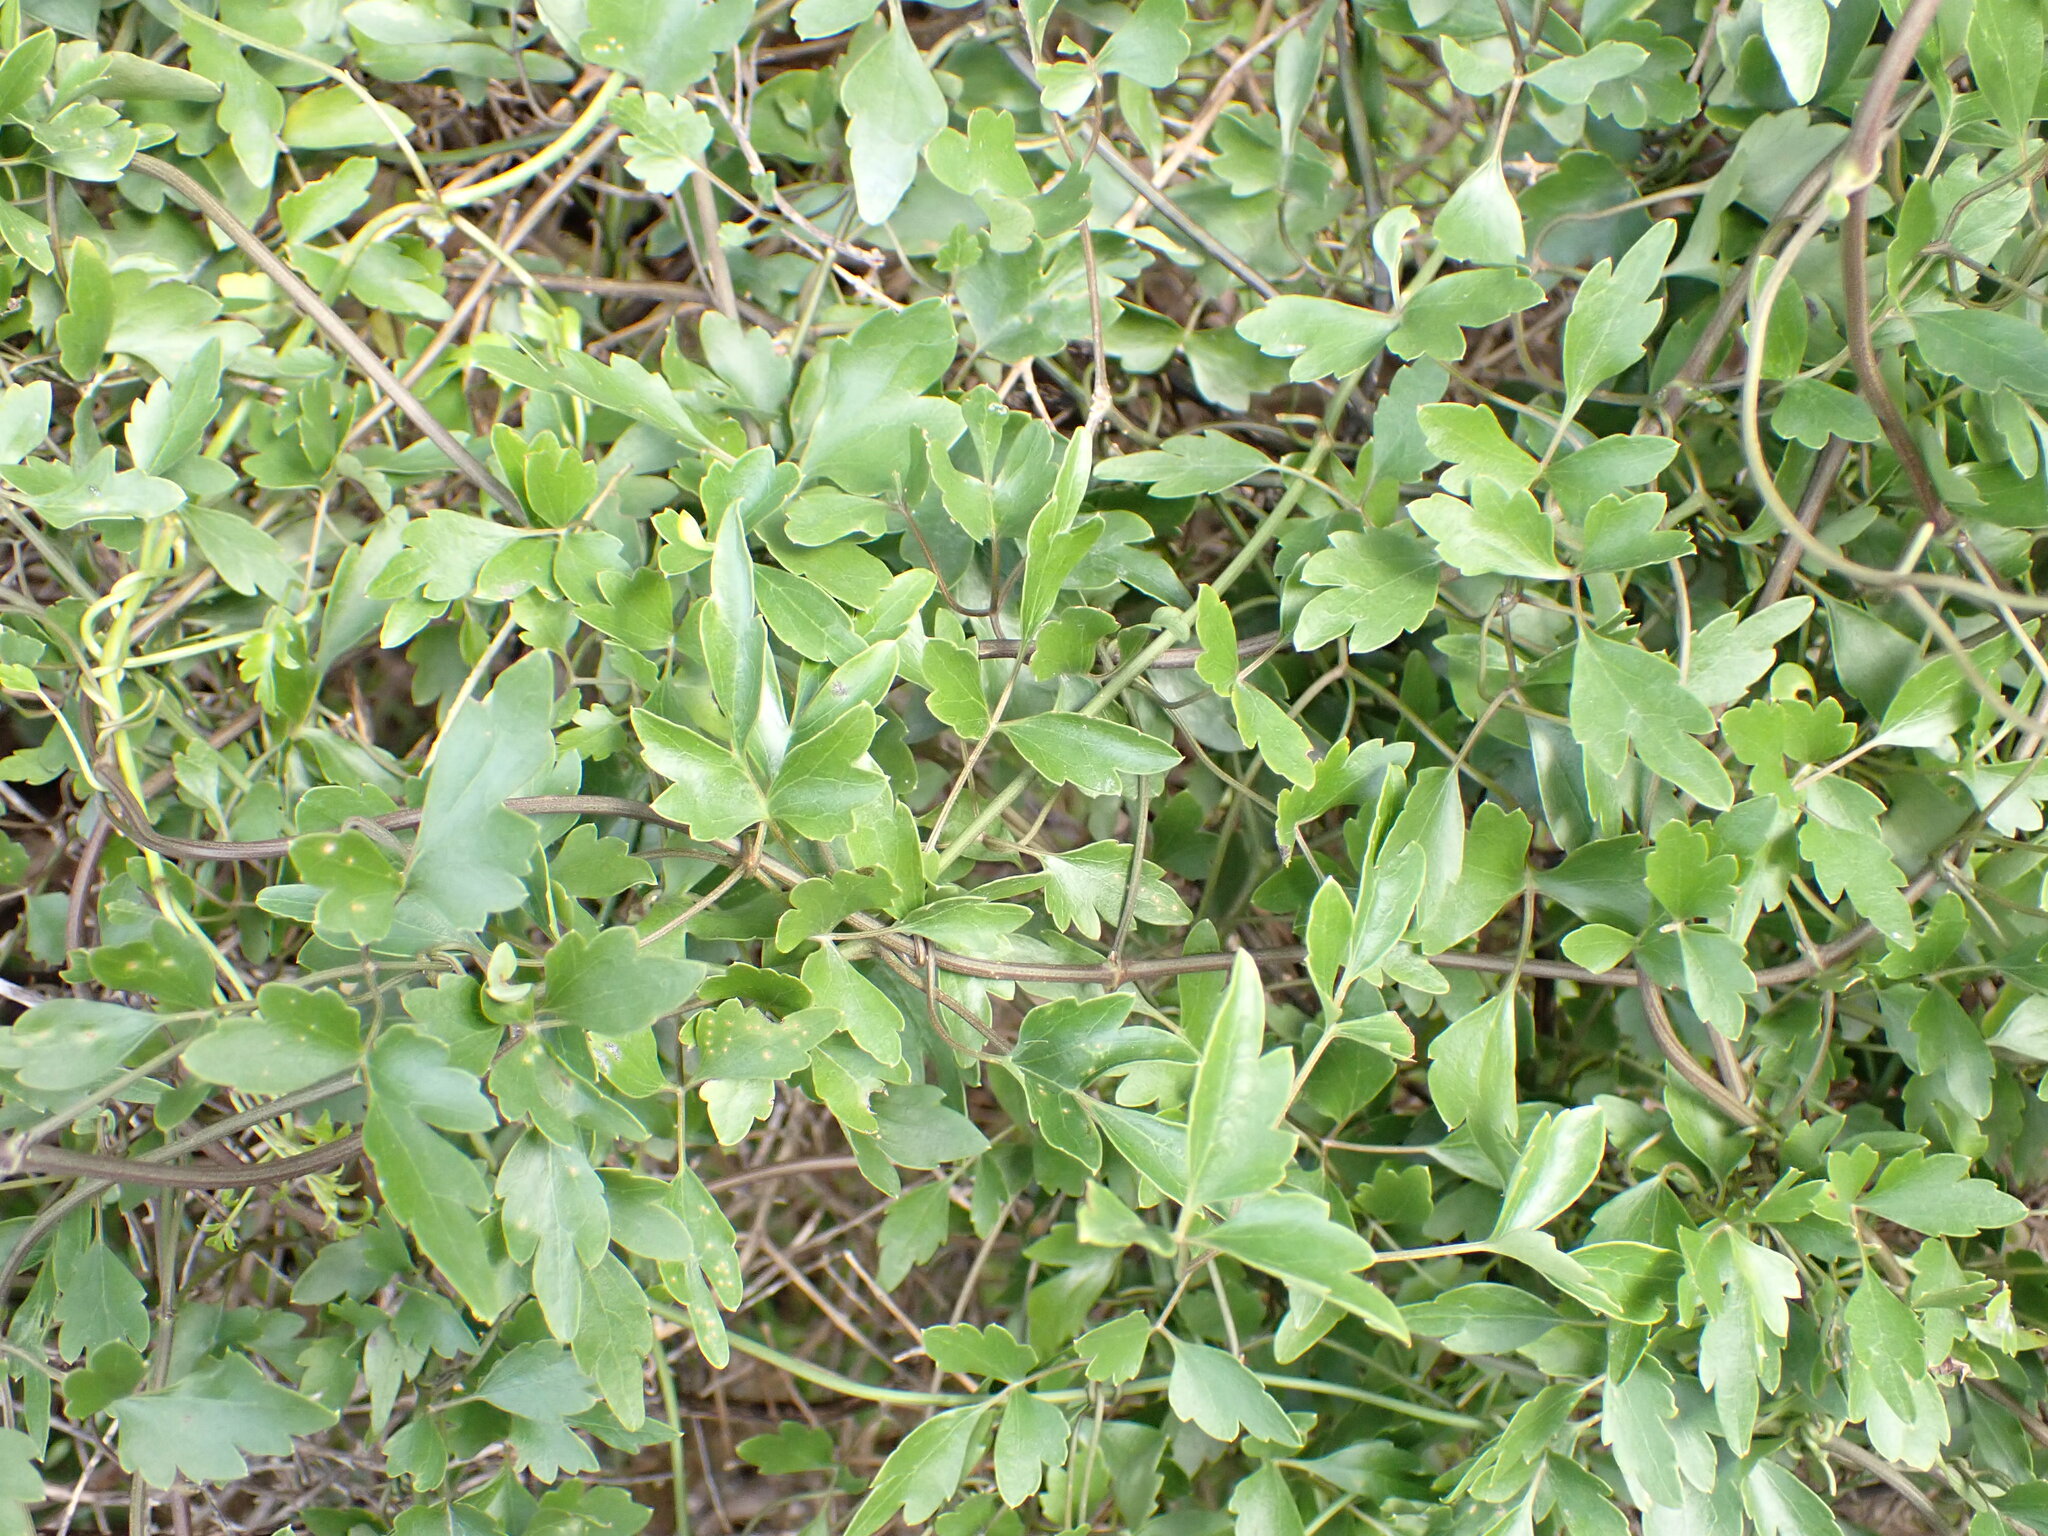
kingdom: Plantae
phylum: Tracheophyta
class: Magnoliopsida
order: Ranunculales
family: Ranunculaceae
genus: Clematis
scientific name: Clematis forsteri
